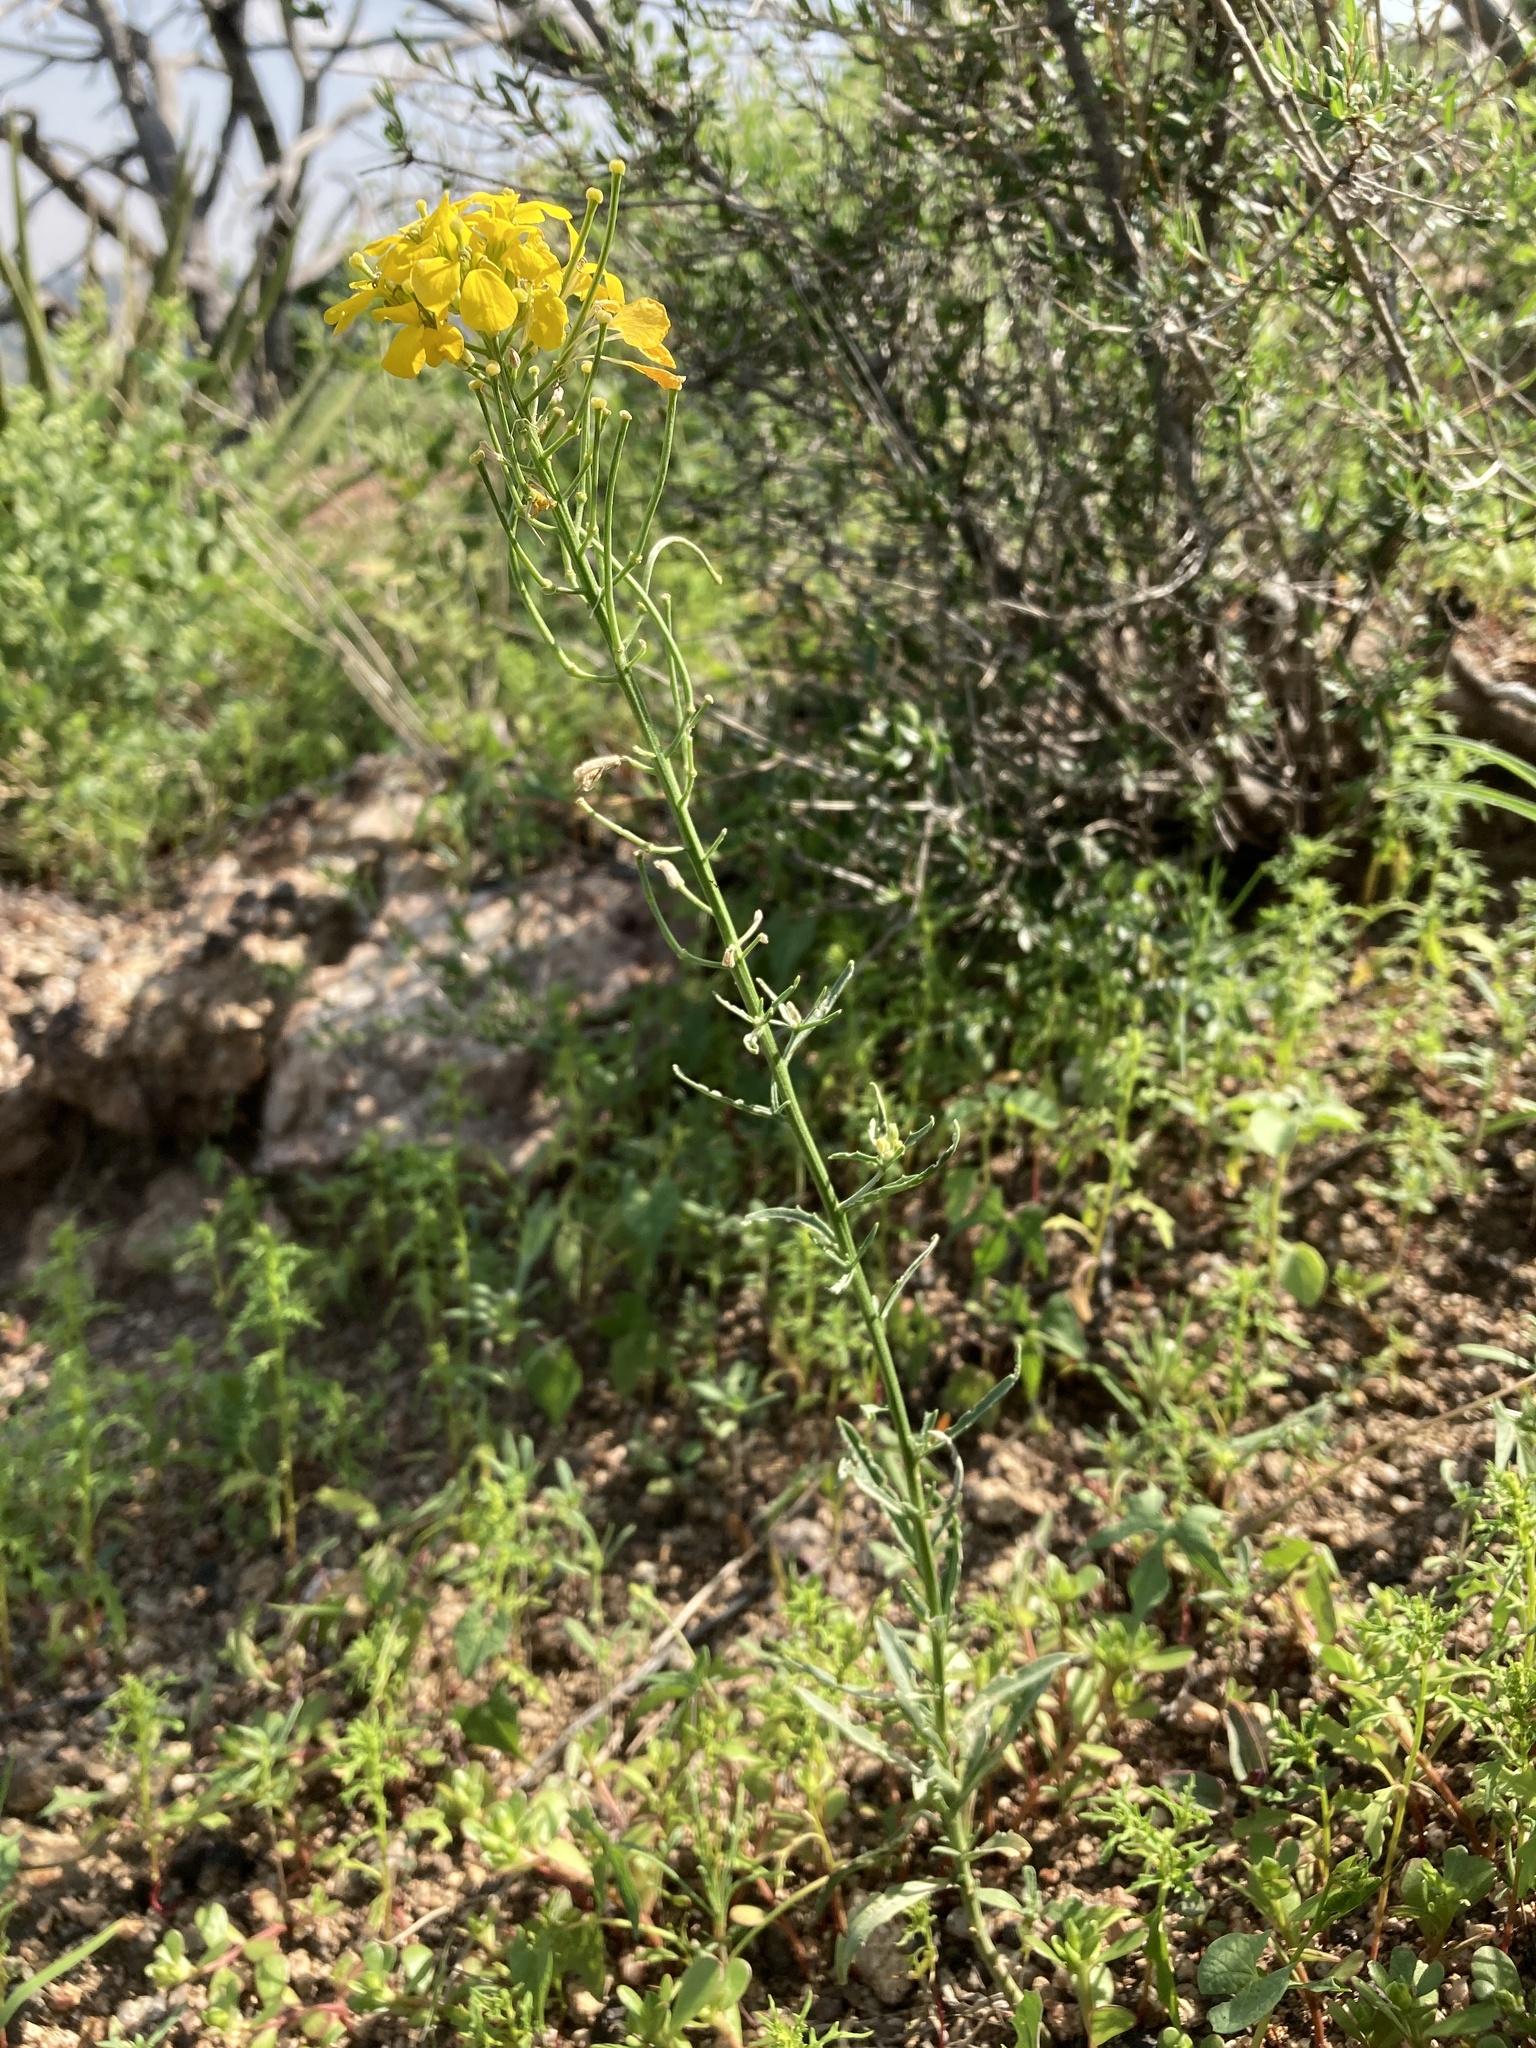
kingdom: Plantae
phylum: Tracheophyta
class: Magnoliopsida
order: Brassicales
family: Brassicaceae
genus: Erysimum
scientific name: Erysimum capitatum
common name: Western wallflower
